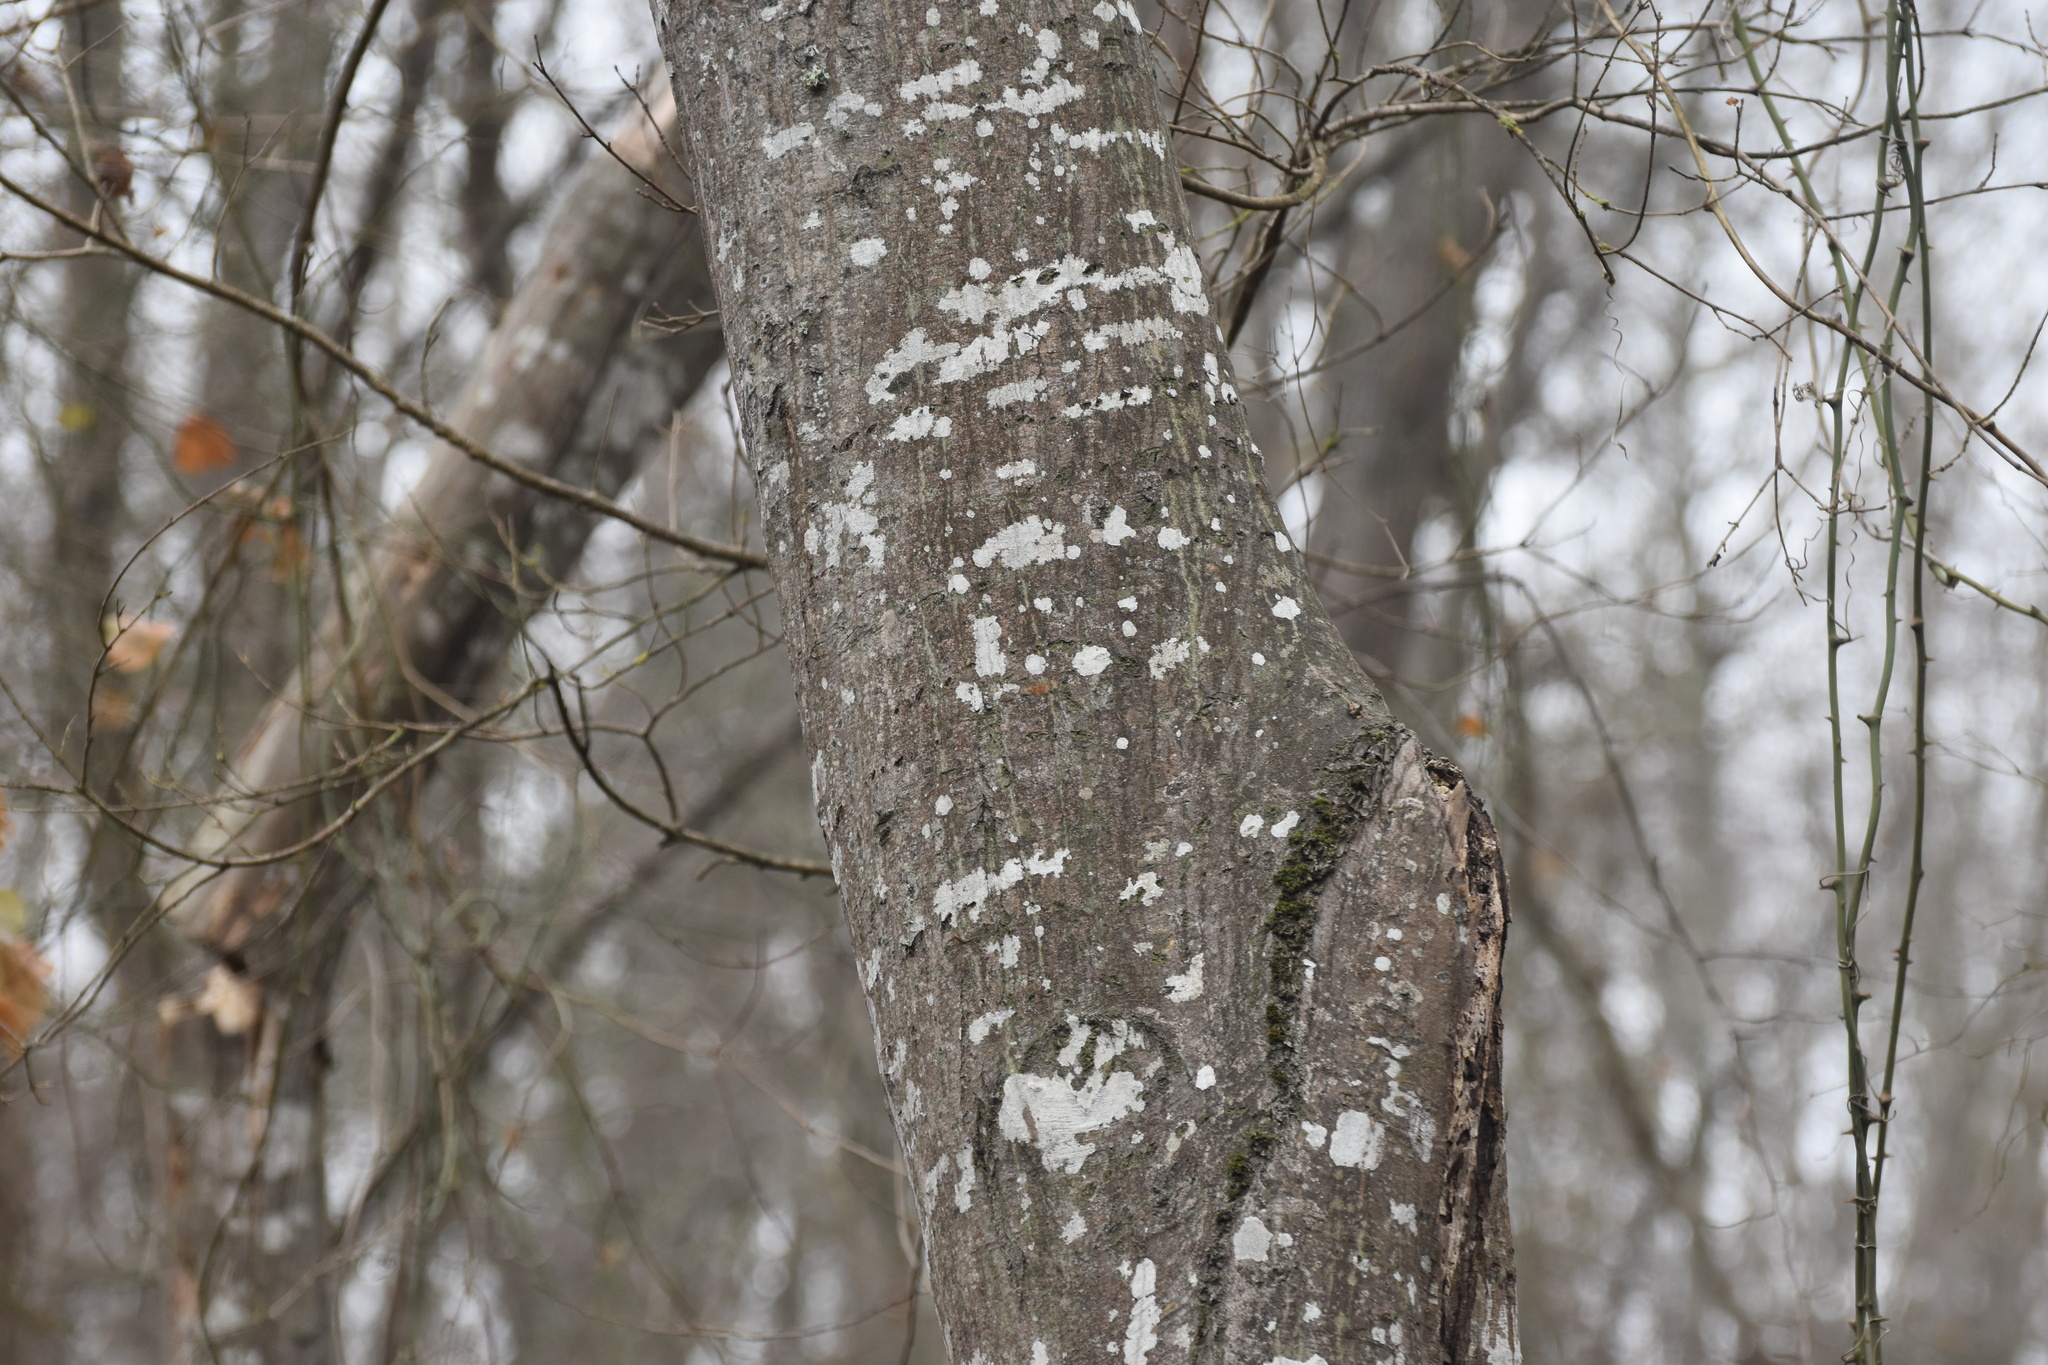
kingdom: Plantae
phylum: Tracheophyta
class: Magnoliopsida
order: Fagales
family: Betulaceae
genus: Carpinus
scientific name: Carpinus betulus
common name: Hornbeam
